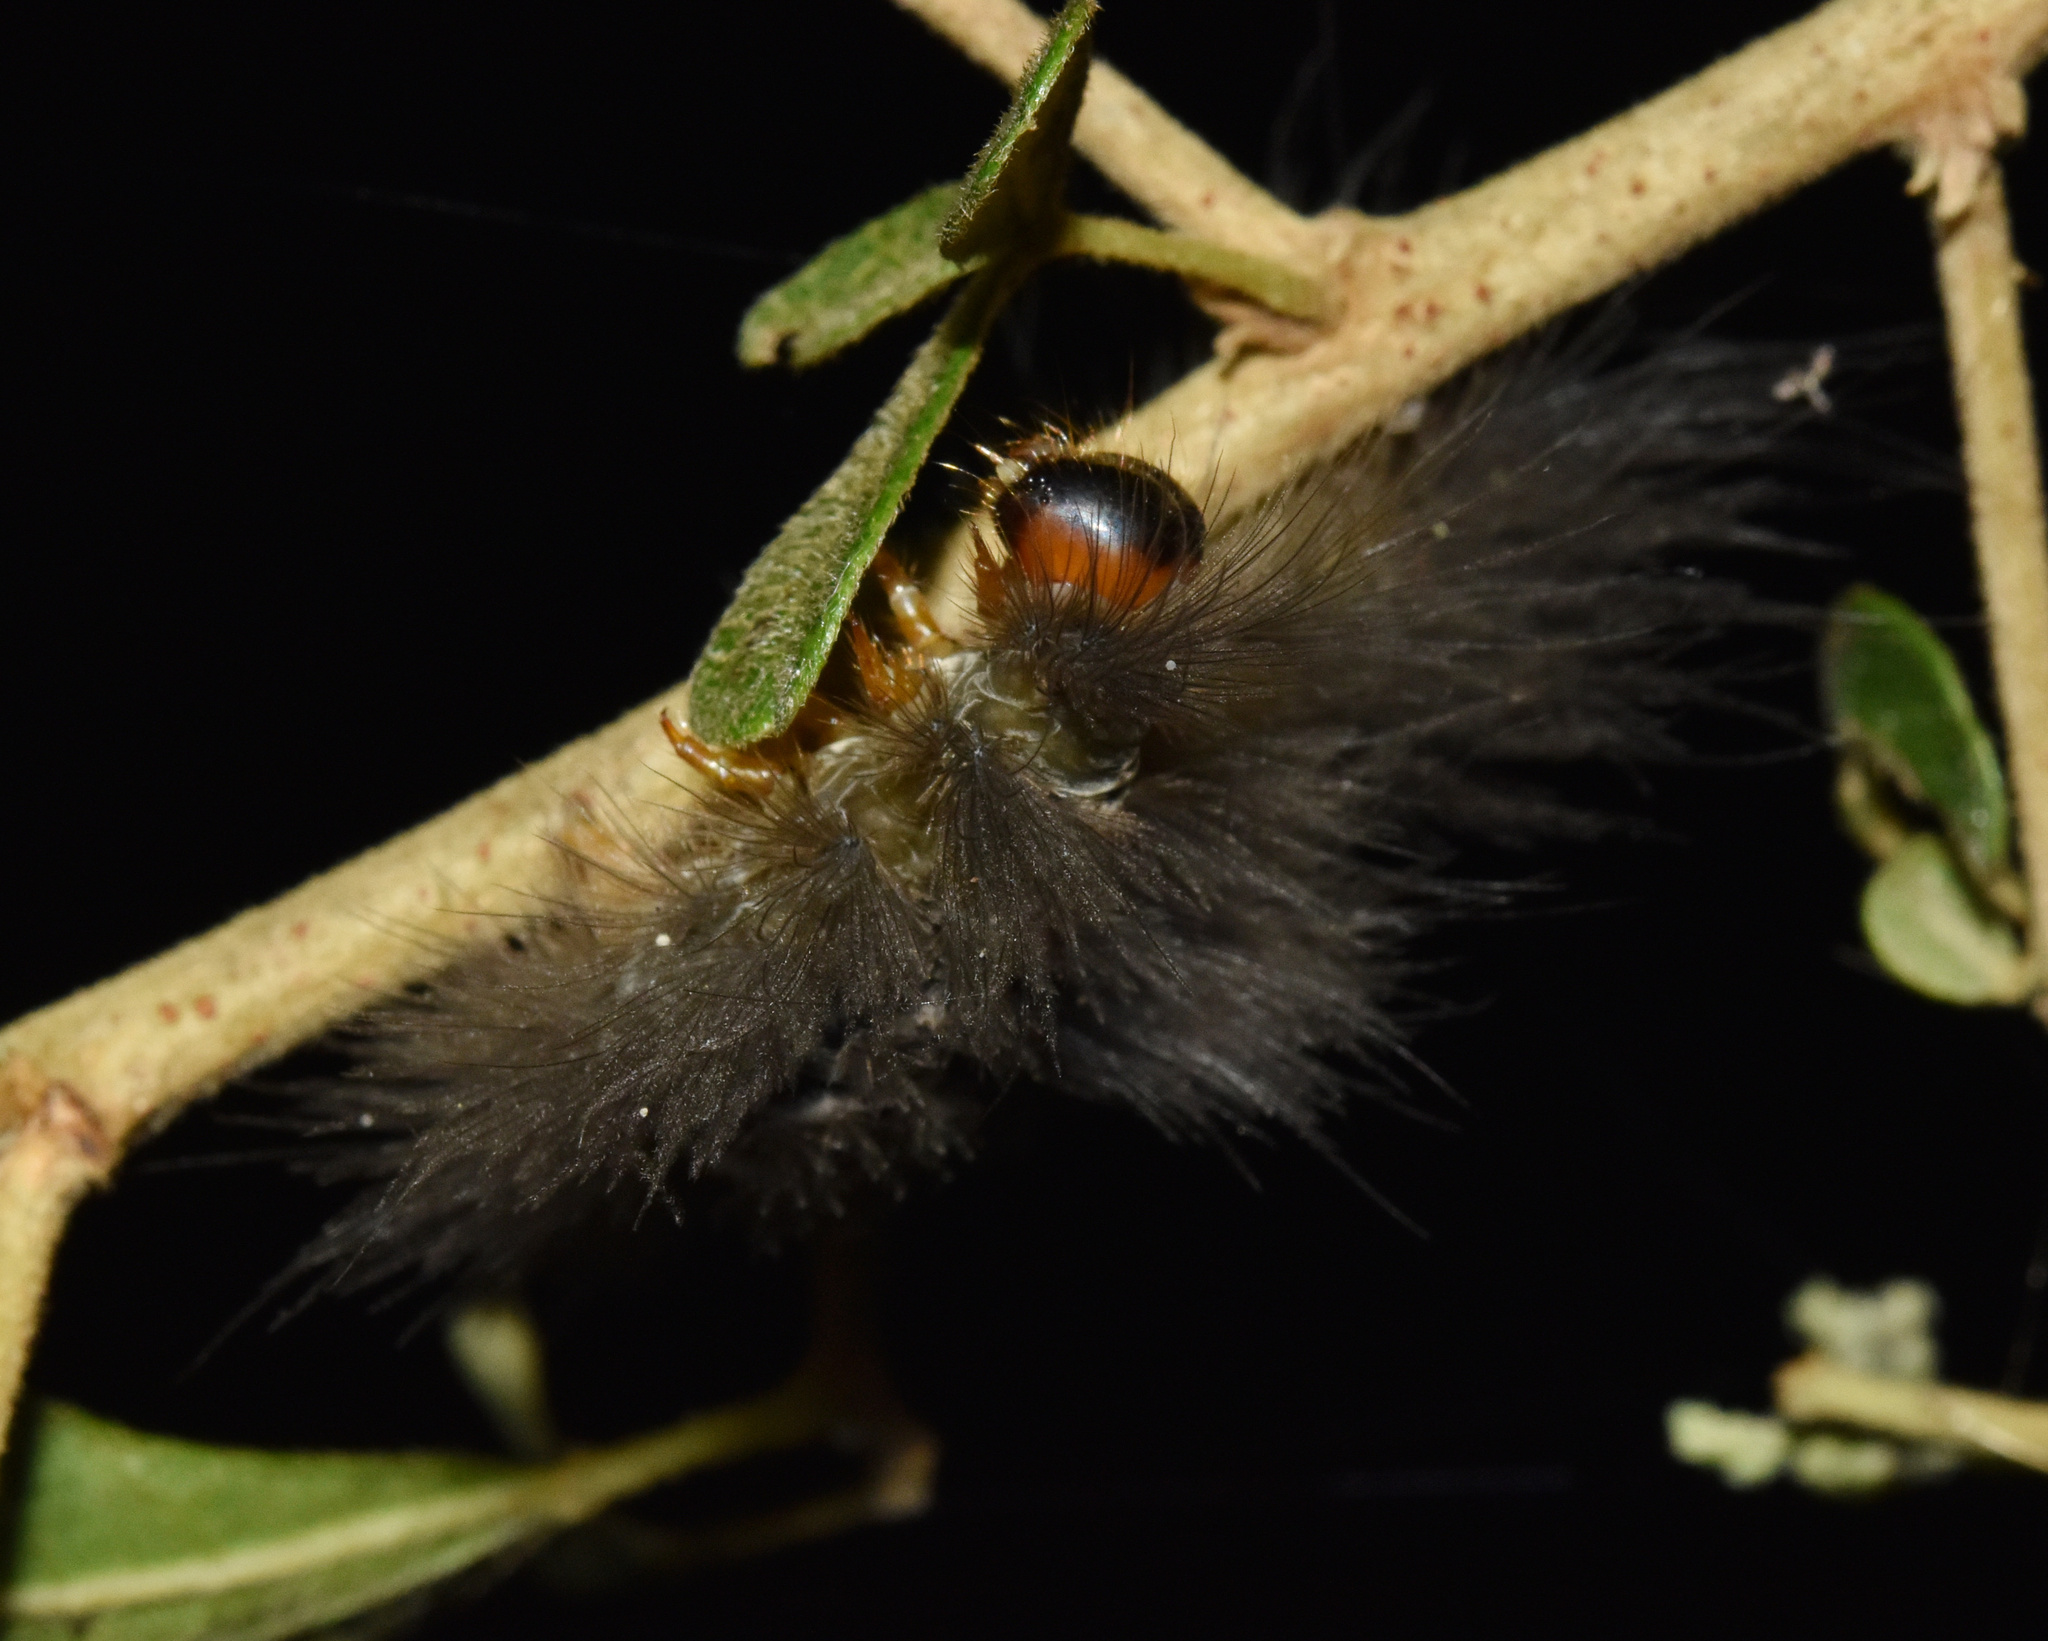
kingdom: Animalia
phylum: Arthropoda
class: Insecta
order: Lepidoptera
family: Erebidae
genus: Polymona
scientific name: Polymona rufifemur
